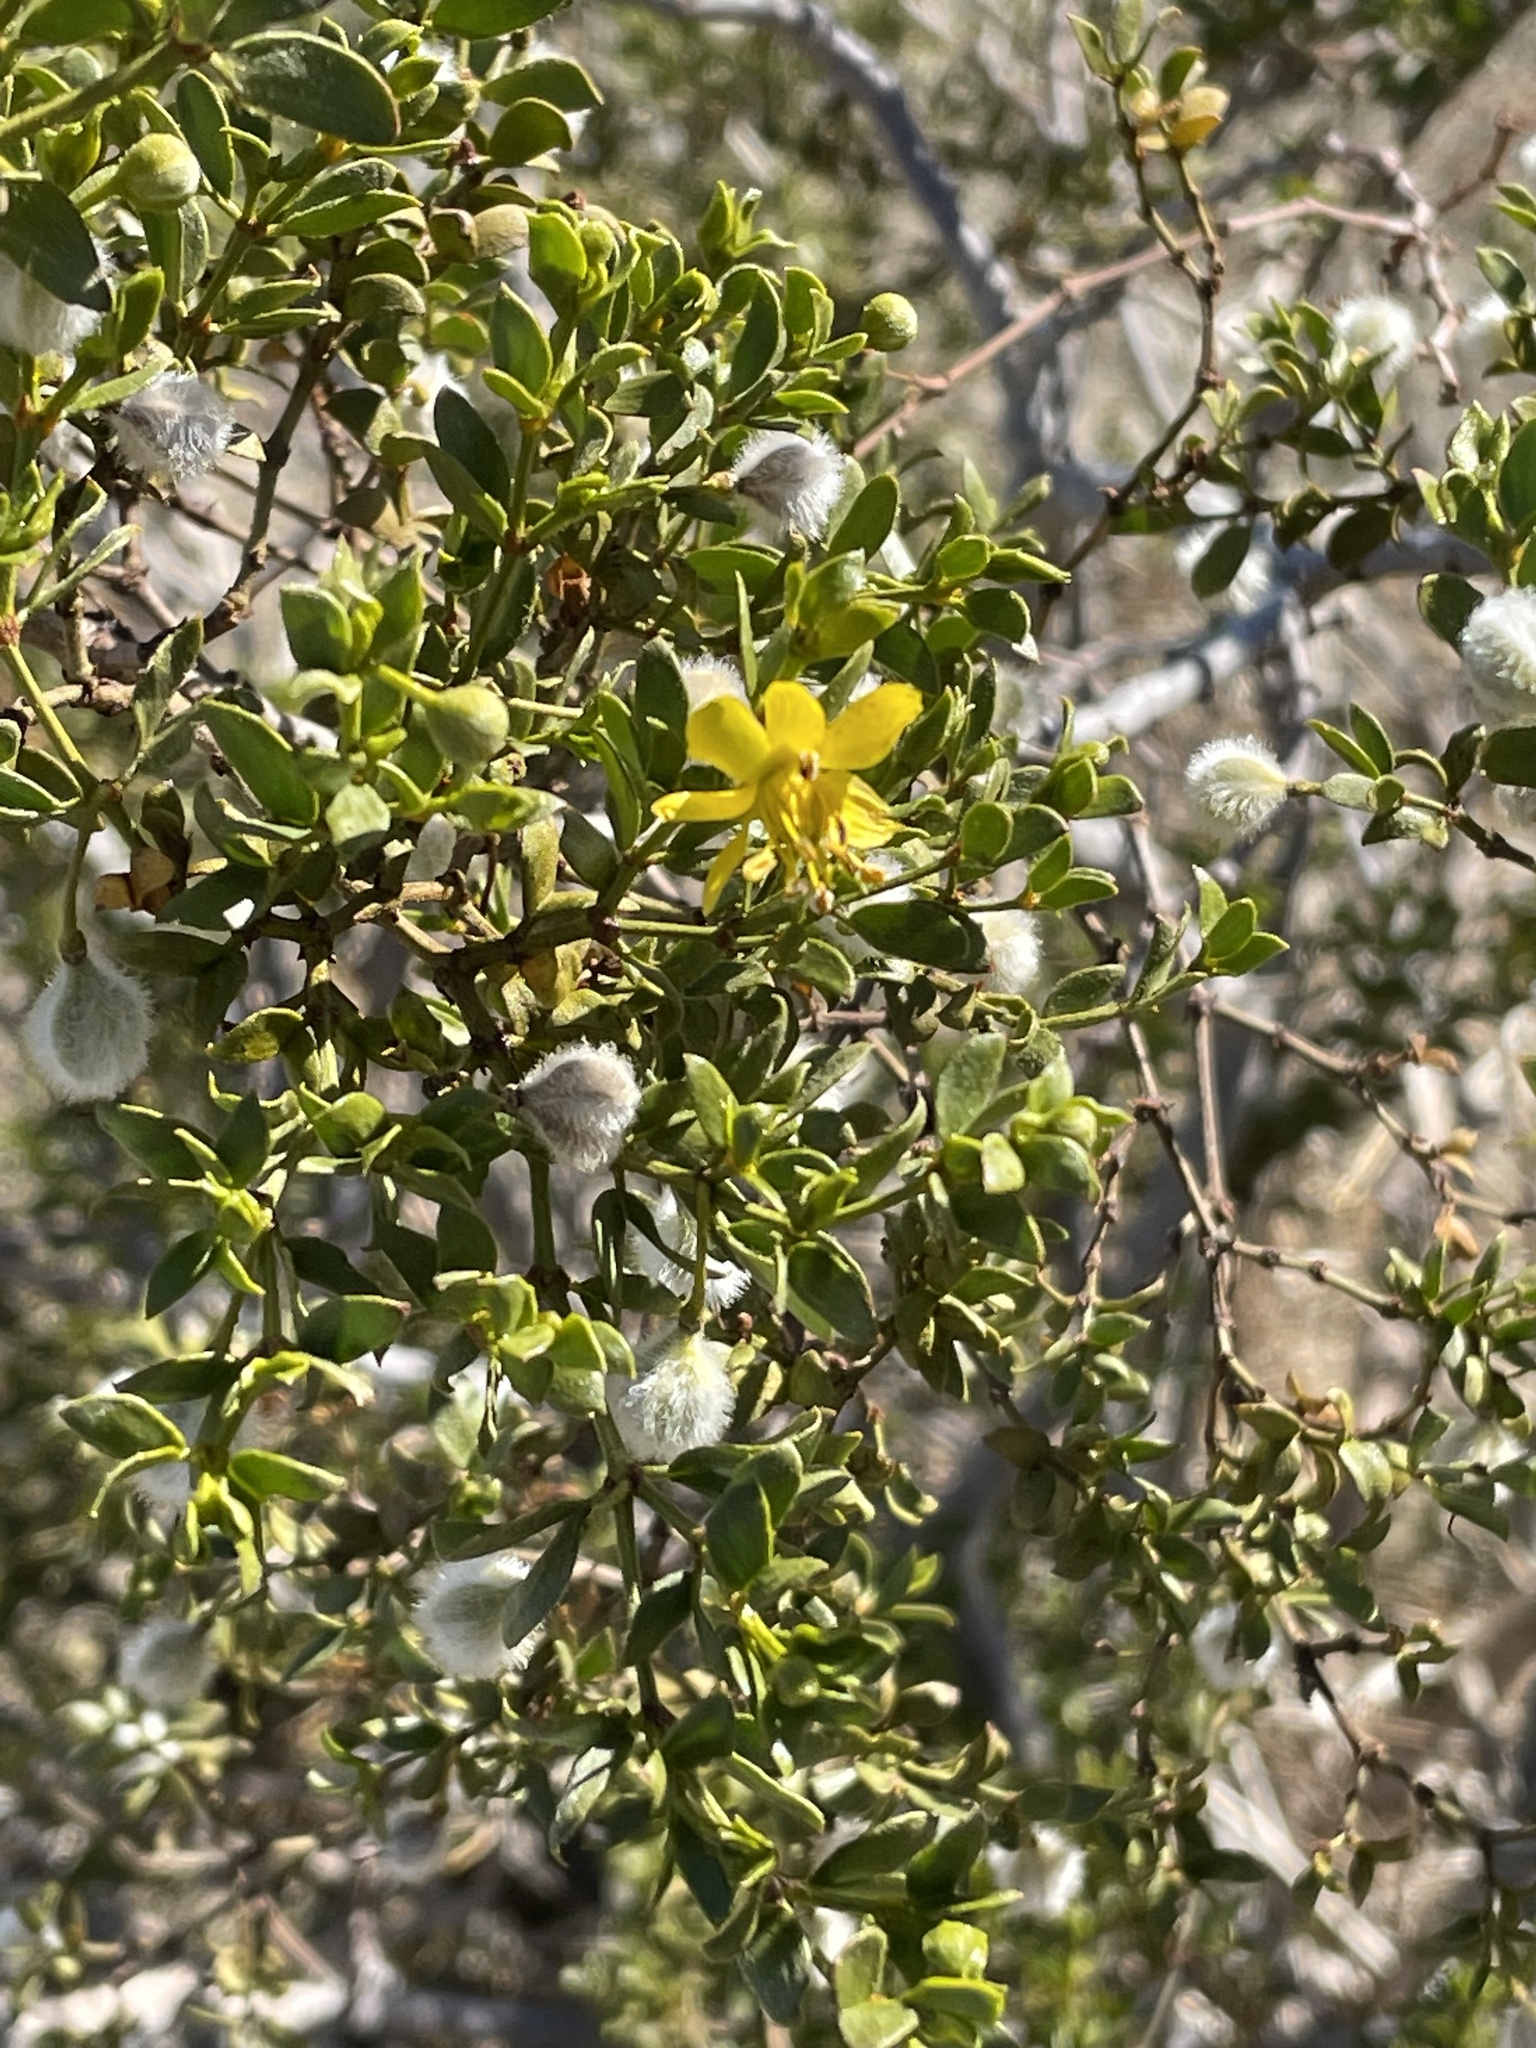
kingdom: Plantae
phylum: Tracheophyta
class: Magnoliopsida
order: Zygophyllales
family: Zygophyllaceae
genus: Larrea
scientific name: Larrea tridentata
